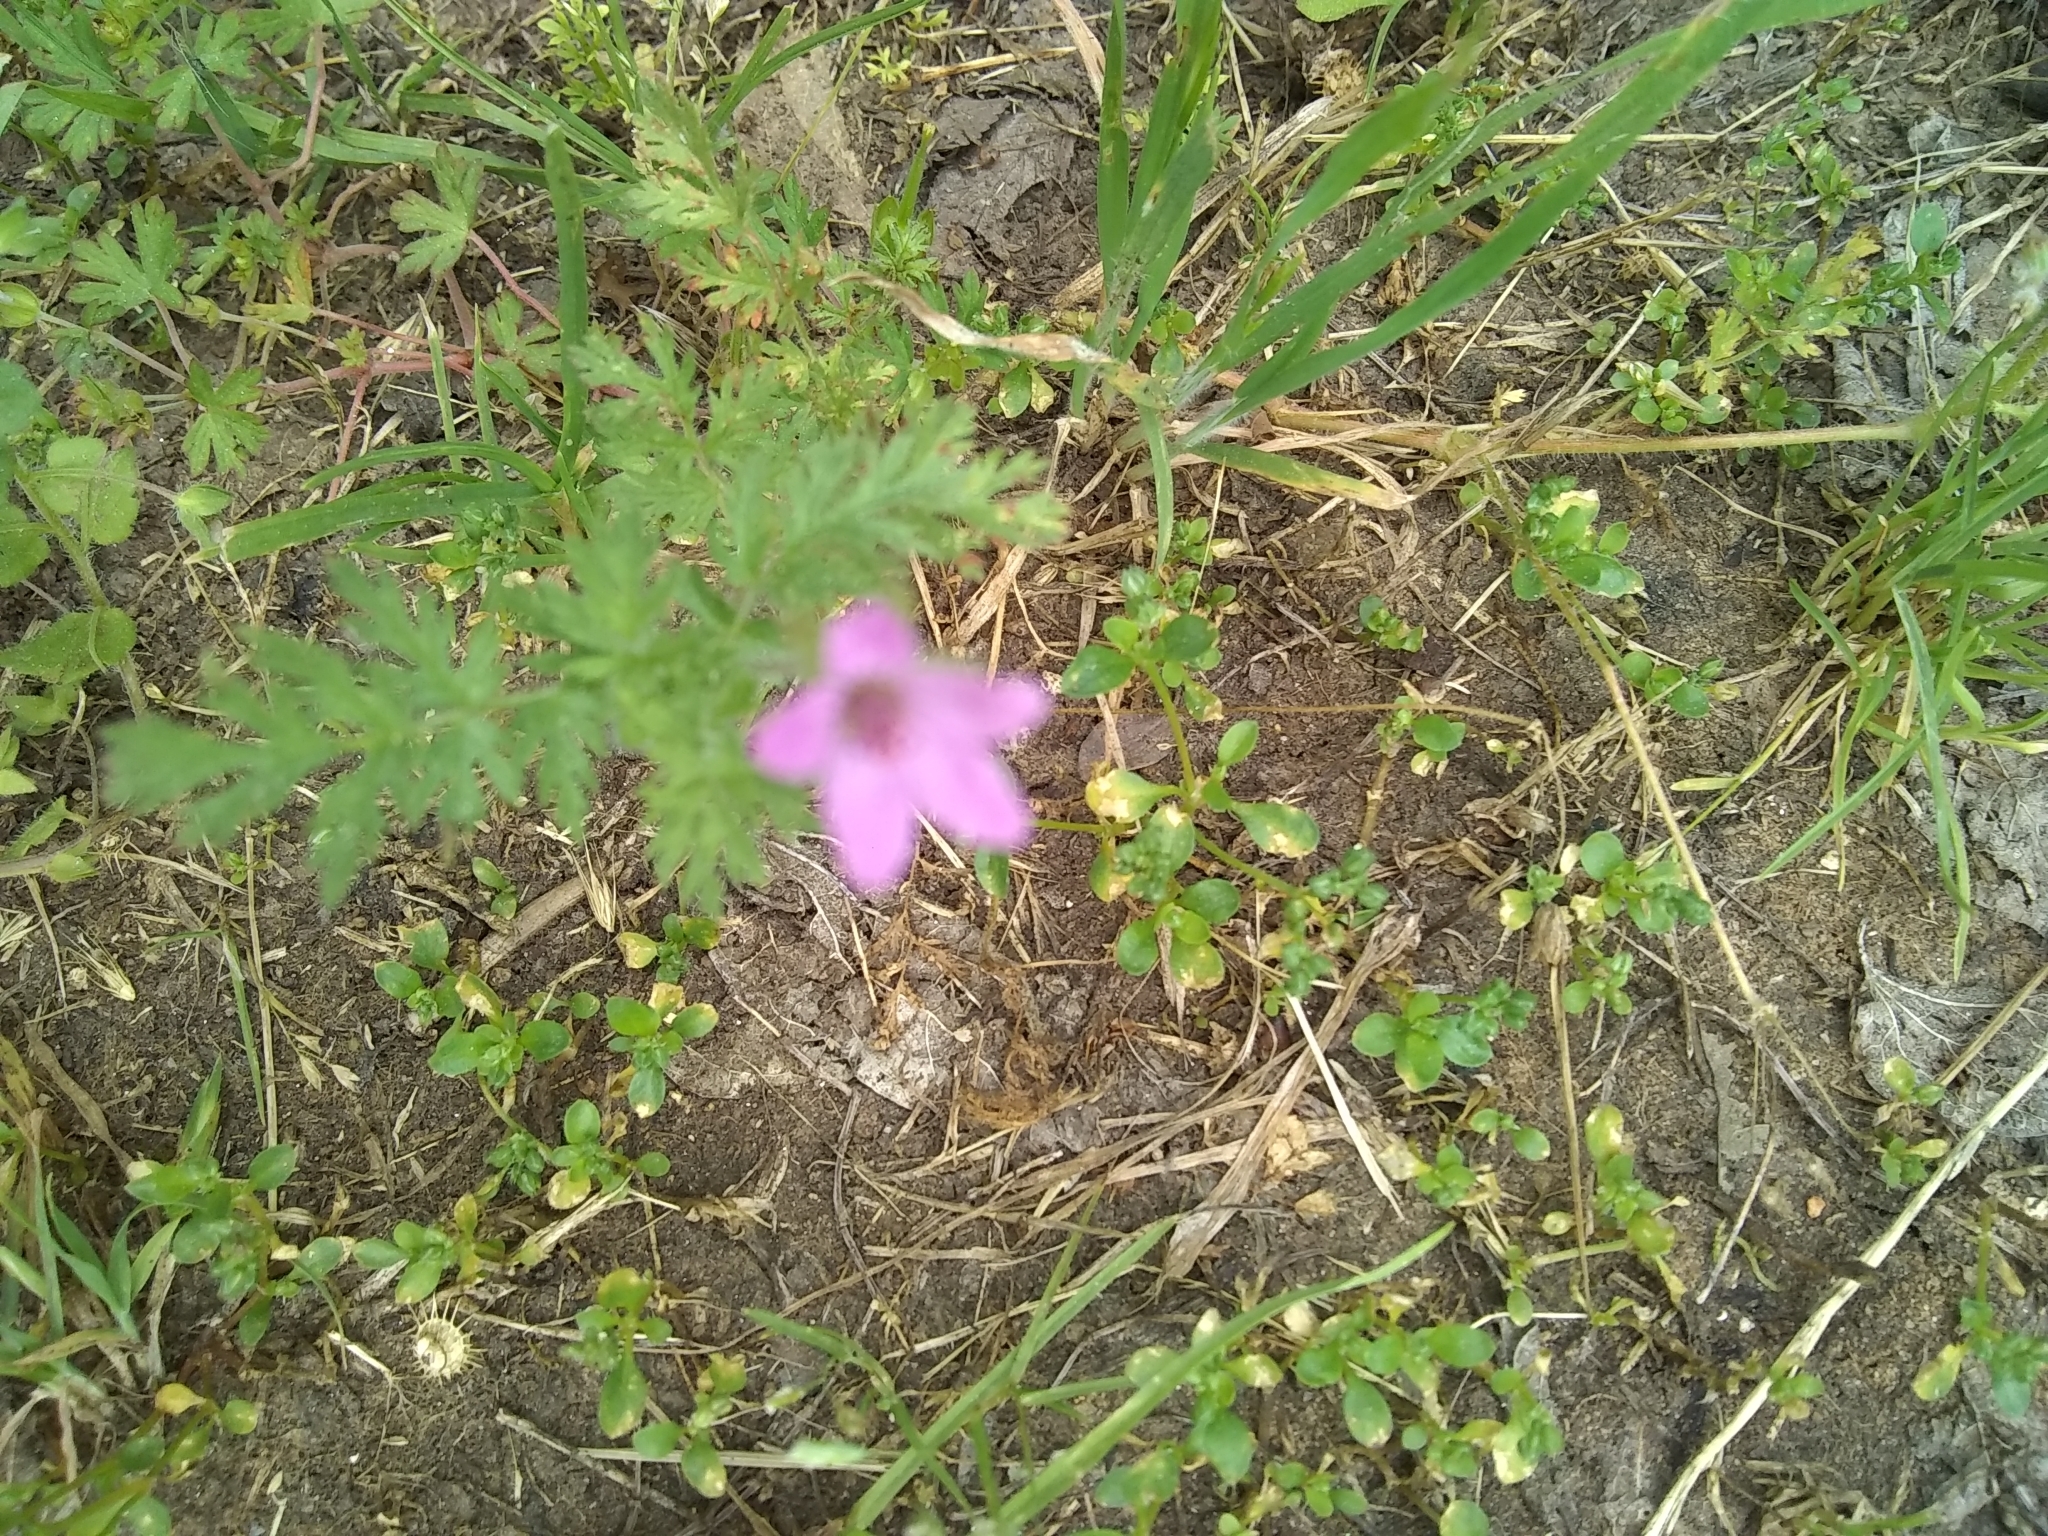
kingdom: Plantae
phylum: Tracheophyta
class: Magnoliopsida
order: Geraniales
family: Geraniaceae
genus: Erodium
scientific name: Erodium cicutarium
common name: Common stork's-bill
